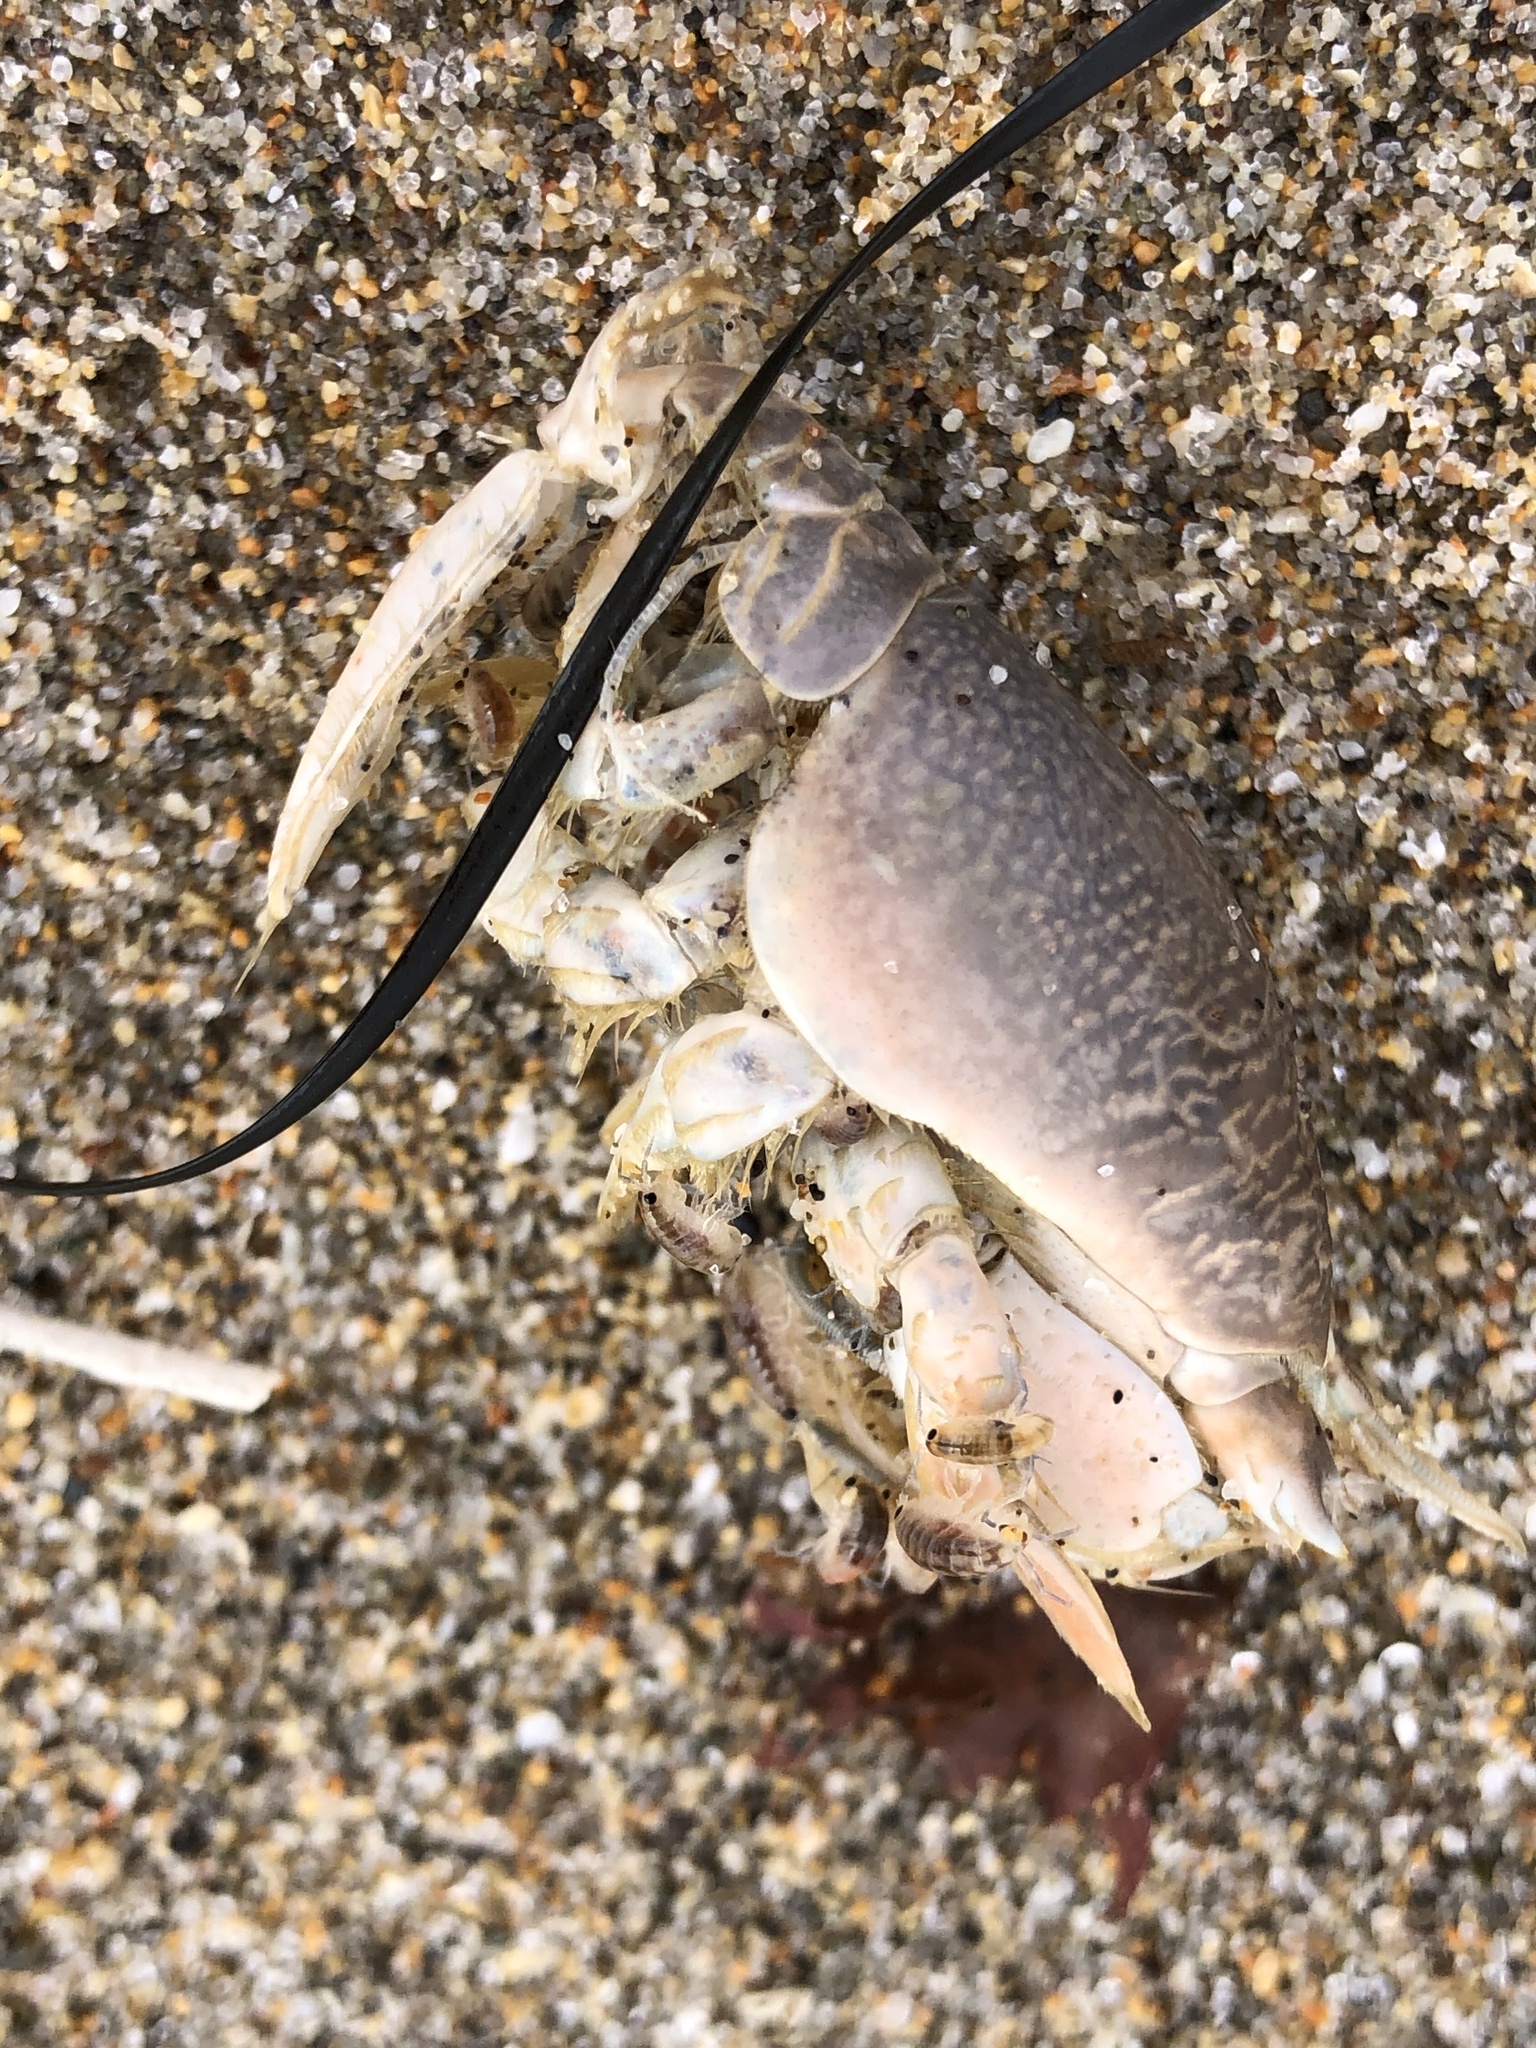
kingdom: Animalia
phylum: Arthropoda
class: Malacostraca
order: Decapoda
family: Hippidae
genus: Emerita
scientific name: Emerita analoga
